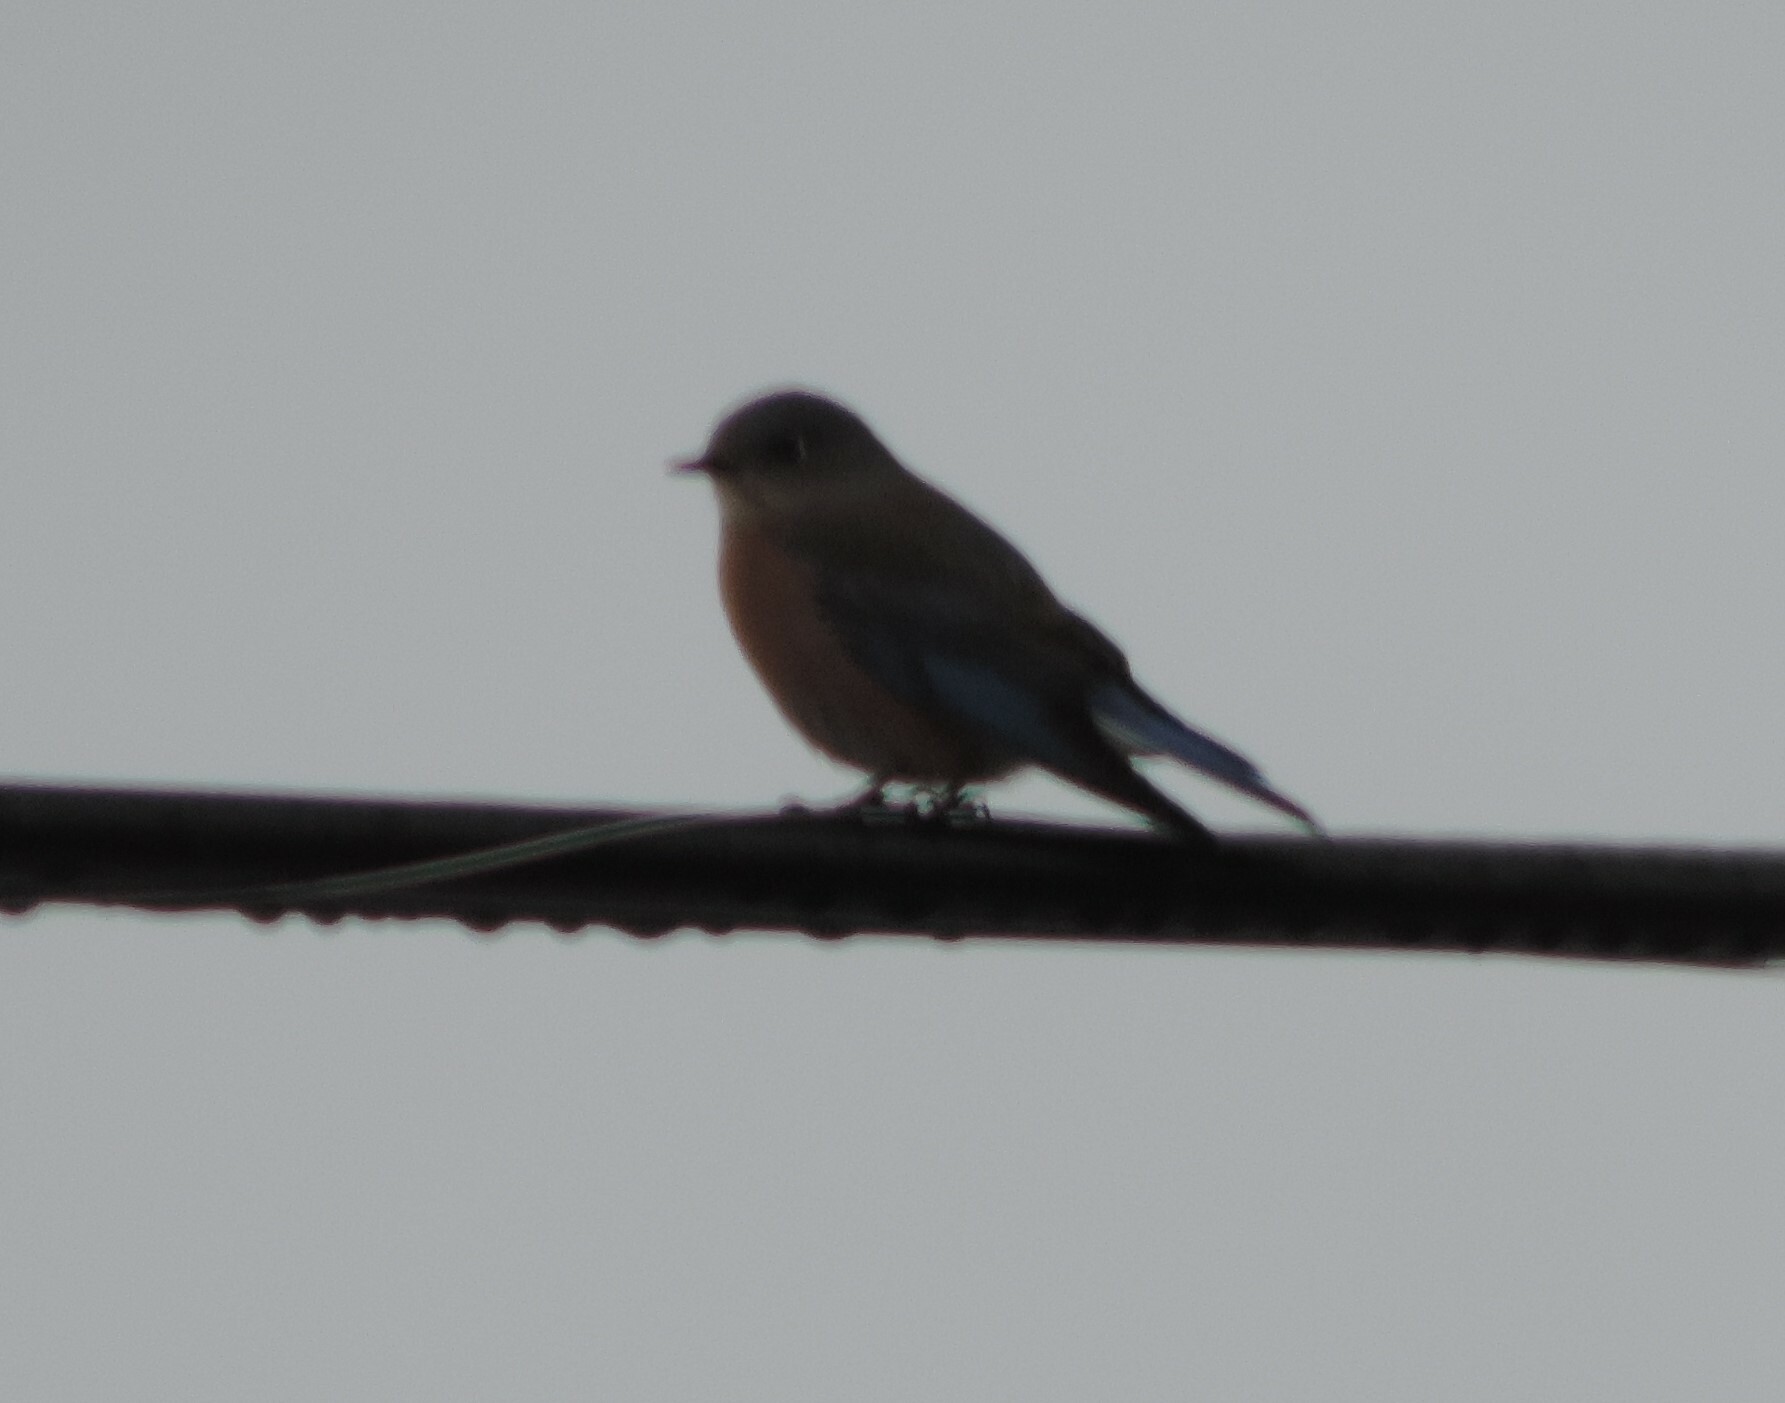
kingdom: Animalia
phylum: Chordata
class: Aves
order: Passeriformes
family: Turdidae
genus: Sialia
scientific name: Sialia mexicana
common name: Western bluebird
